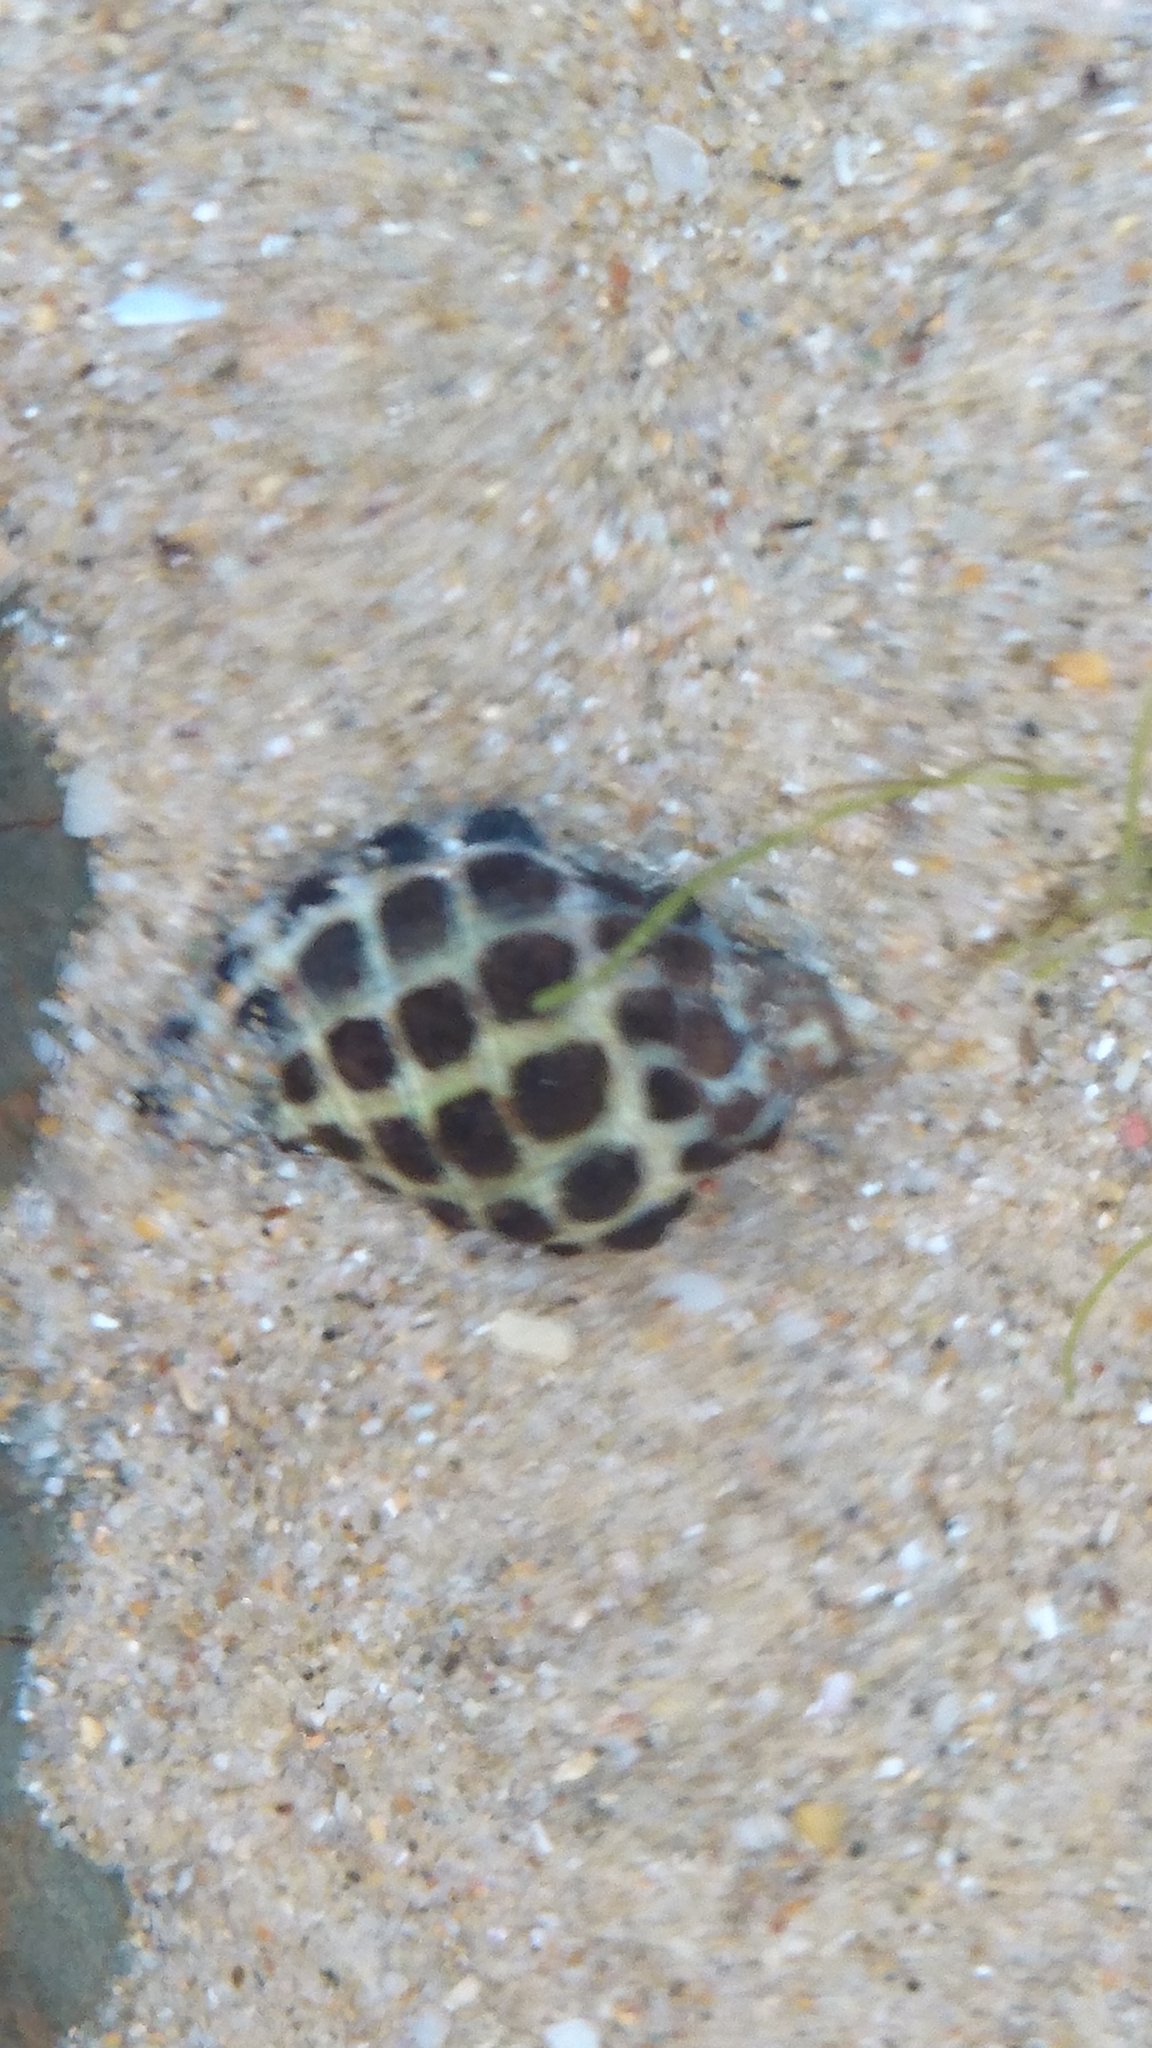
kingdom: Animalia
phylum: Mollusca
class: Gastropoda
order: Neogastropoda
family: Muricidae
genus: Tenguella
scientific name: Tenguella marginalba
